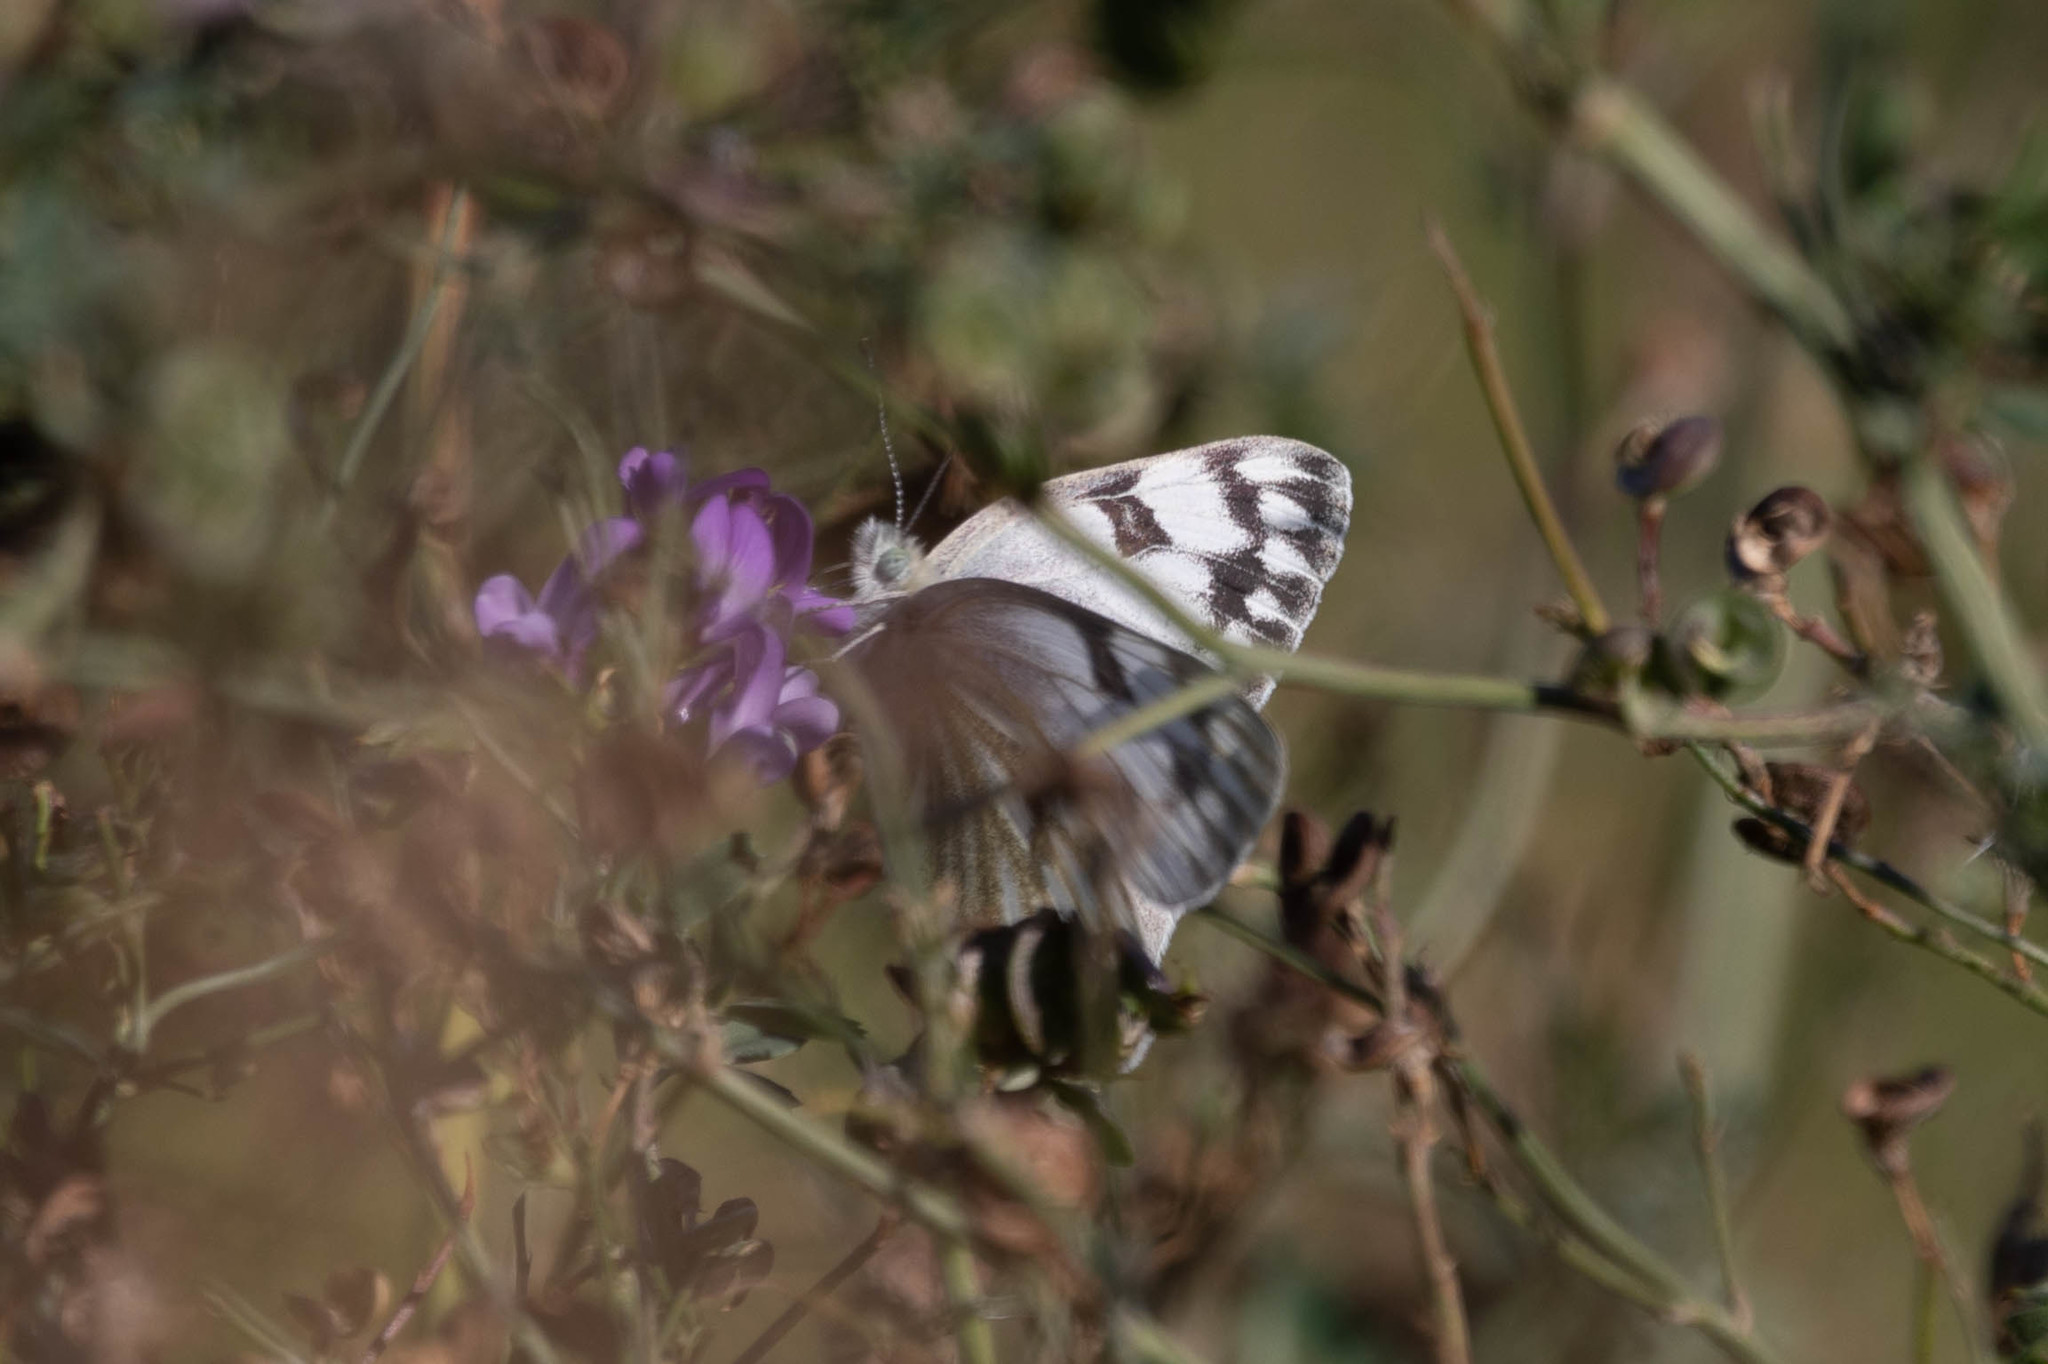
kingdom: Animalia
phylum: Arthropoda
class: Insecta
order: Lepidoptera
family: Pieridae
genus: Pontia
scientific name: Pontia occidentalis
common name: Western white
